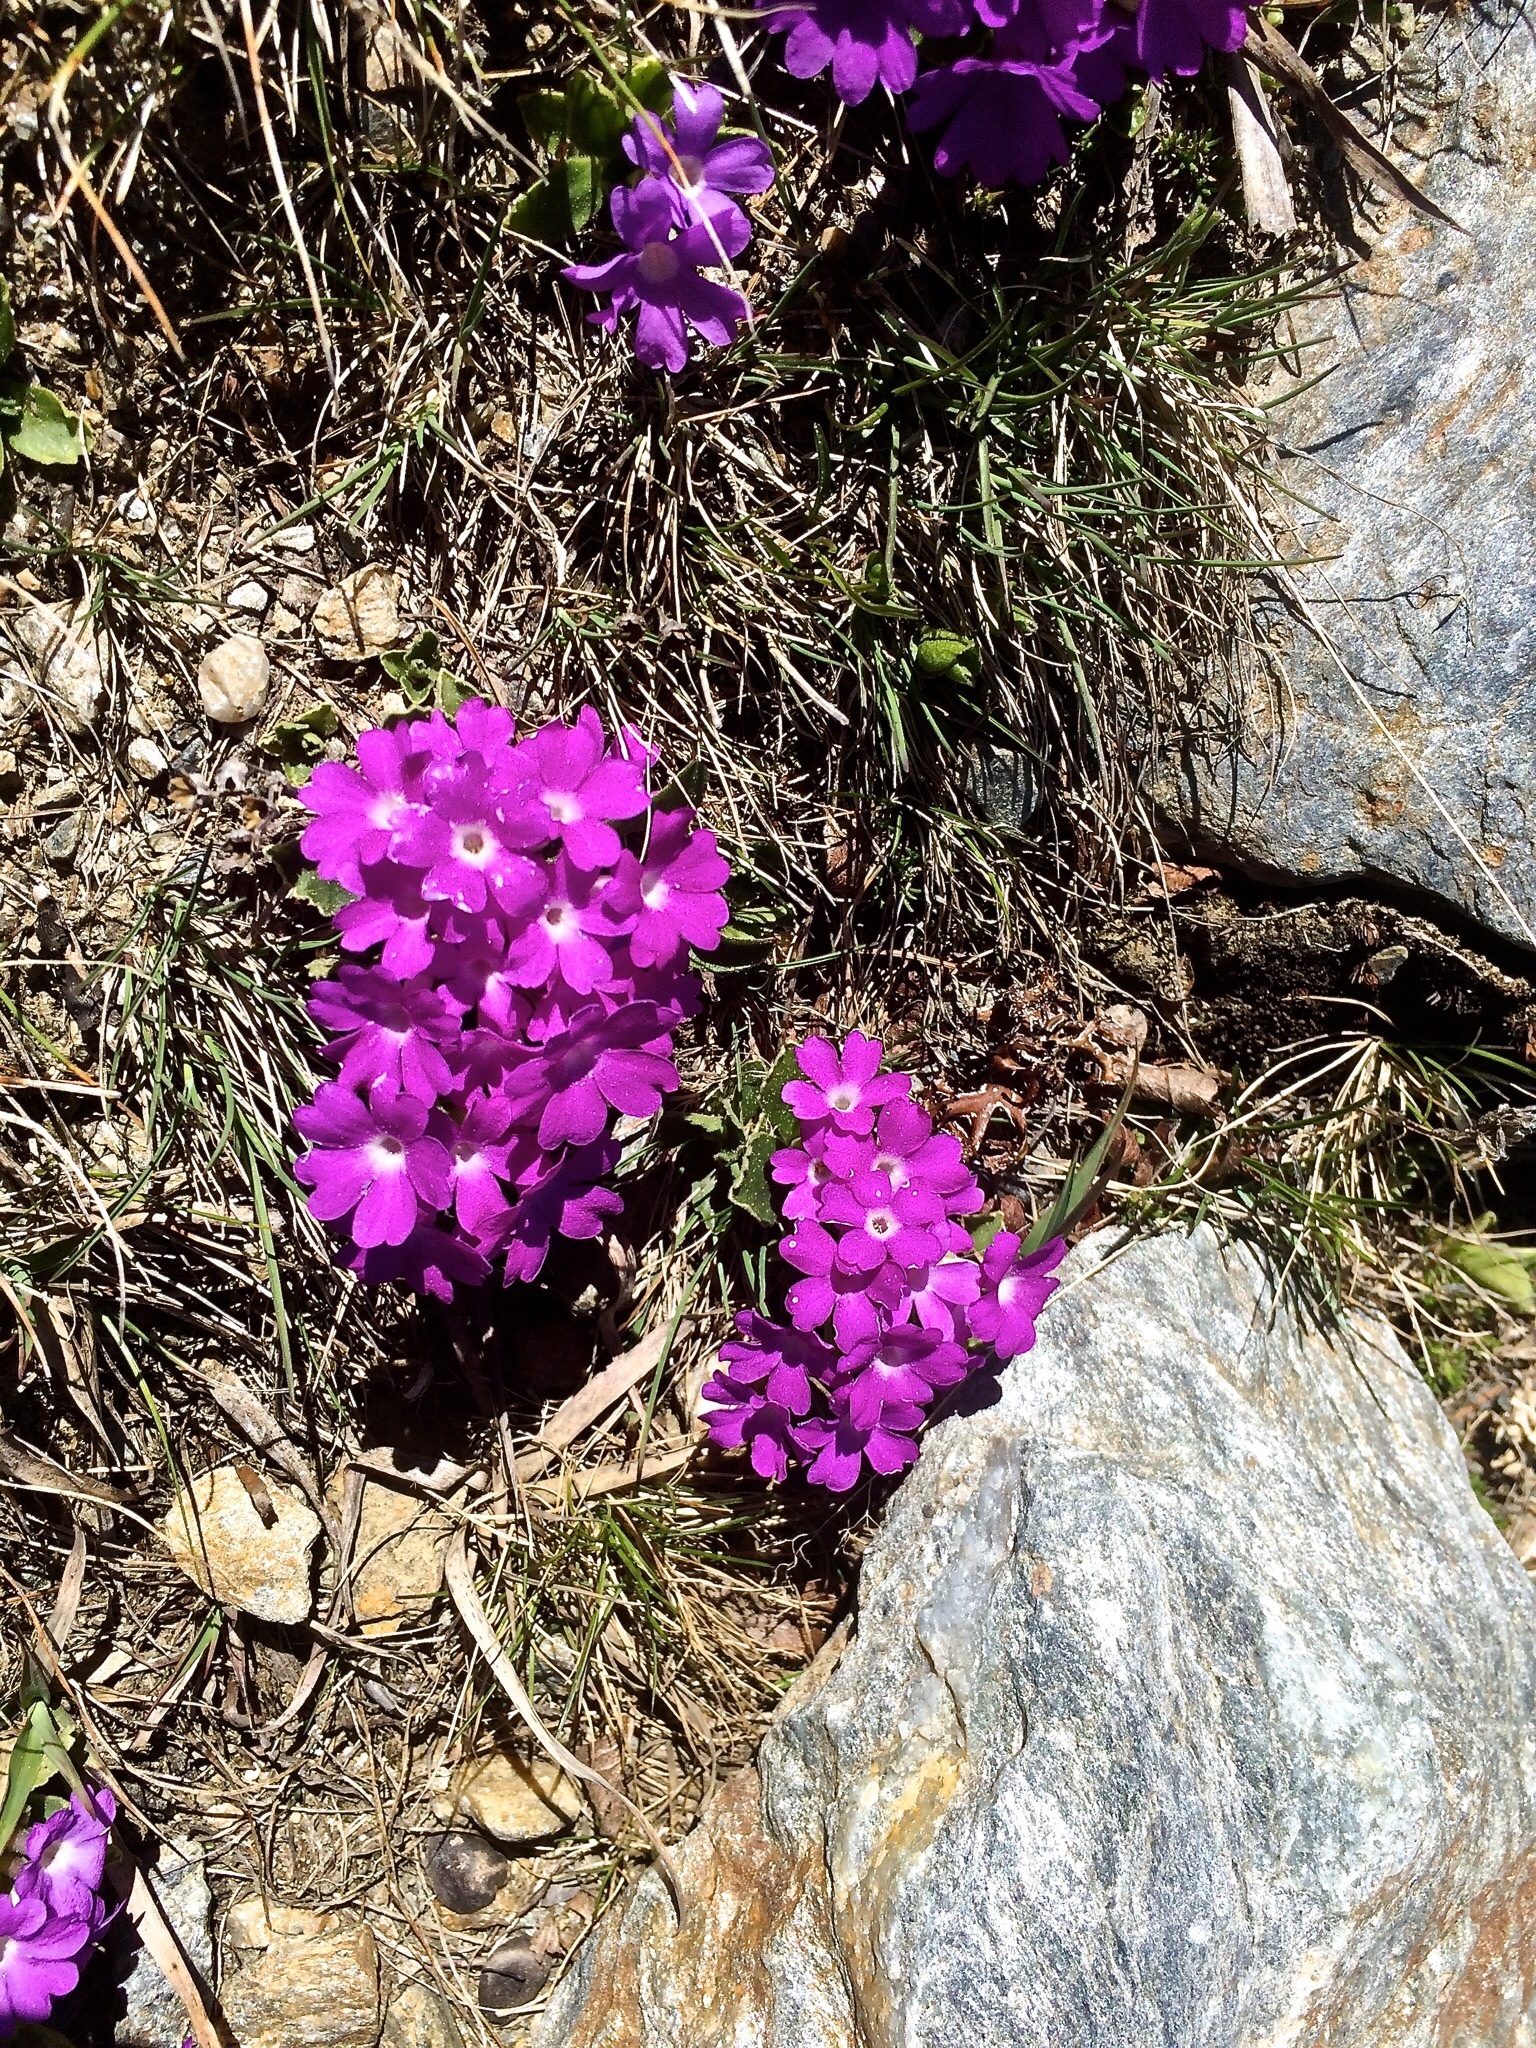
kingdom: Plantae
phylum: Tracheophyta
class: Magnoliopsida
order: Ericales
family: Primulaceae
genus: Primula
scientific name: Primula hirsuta
